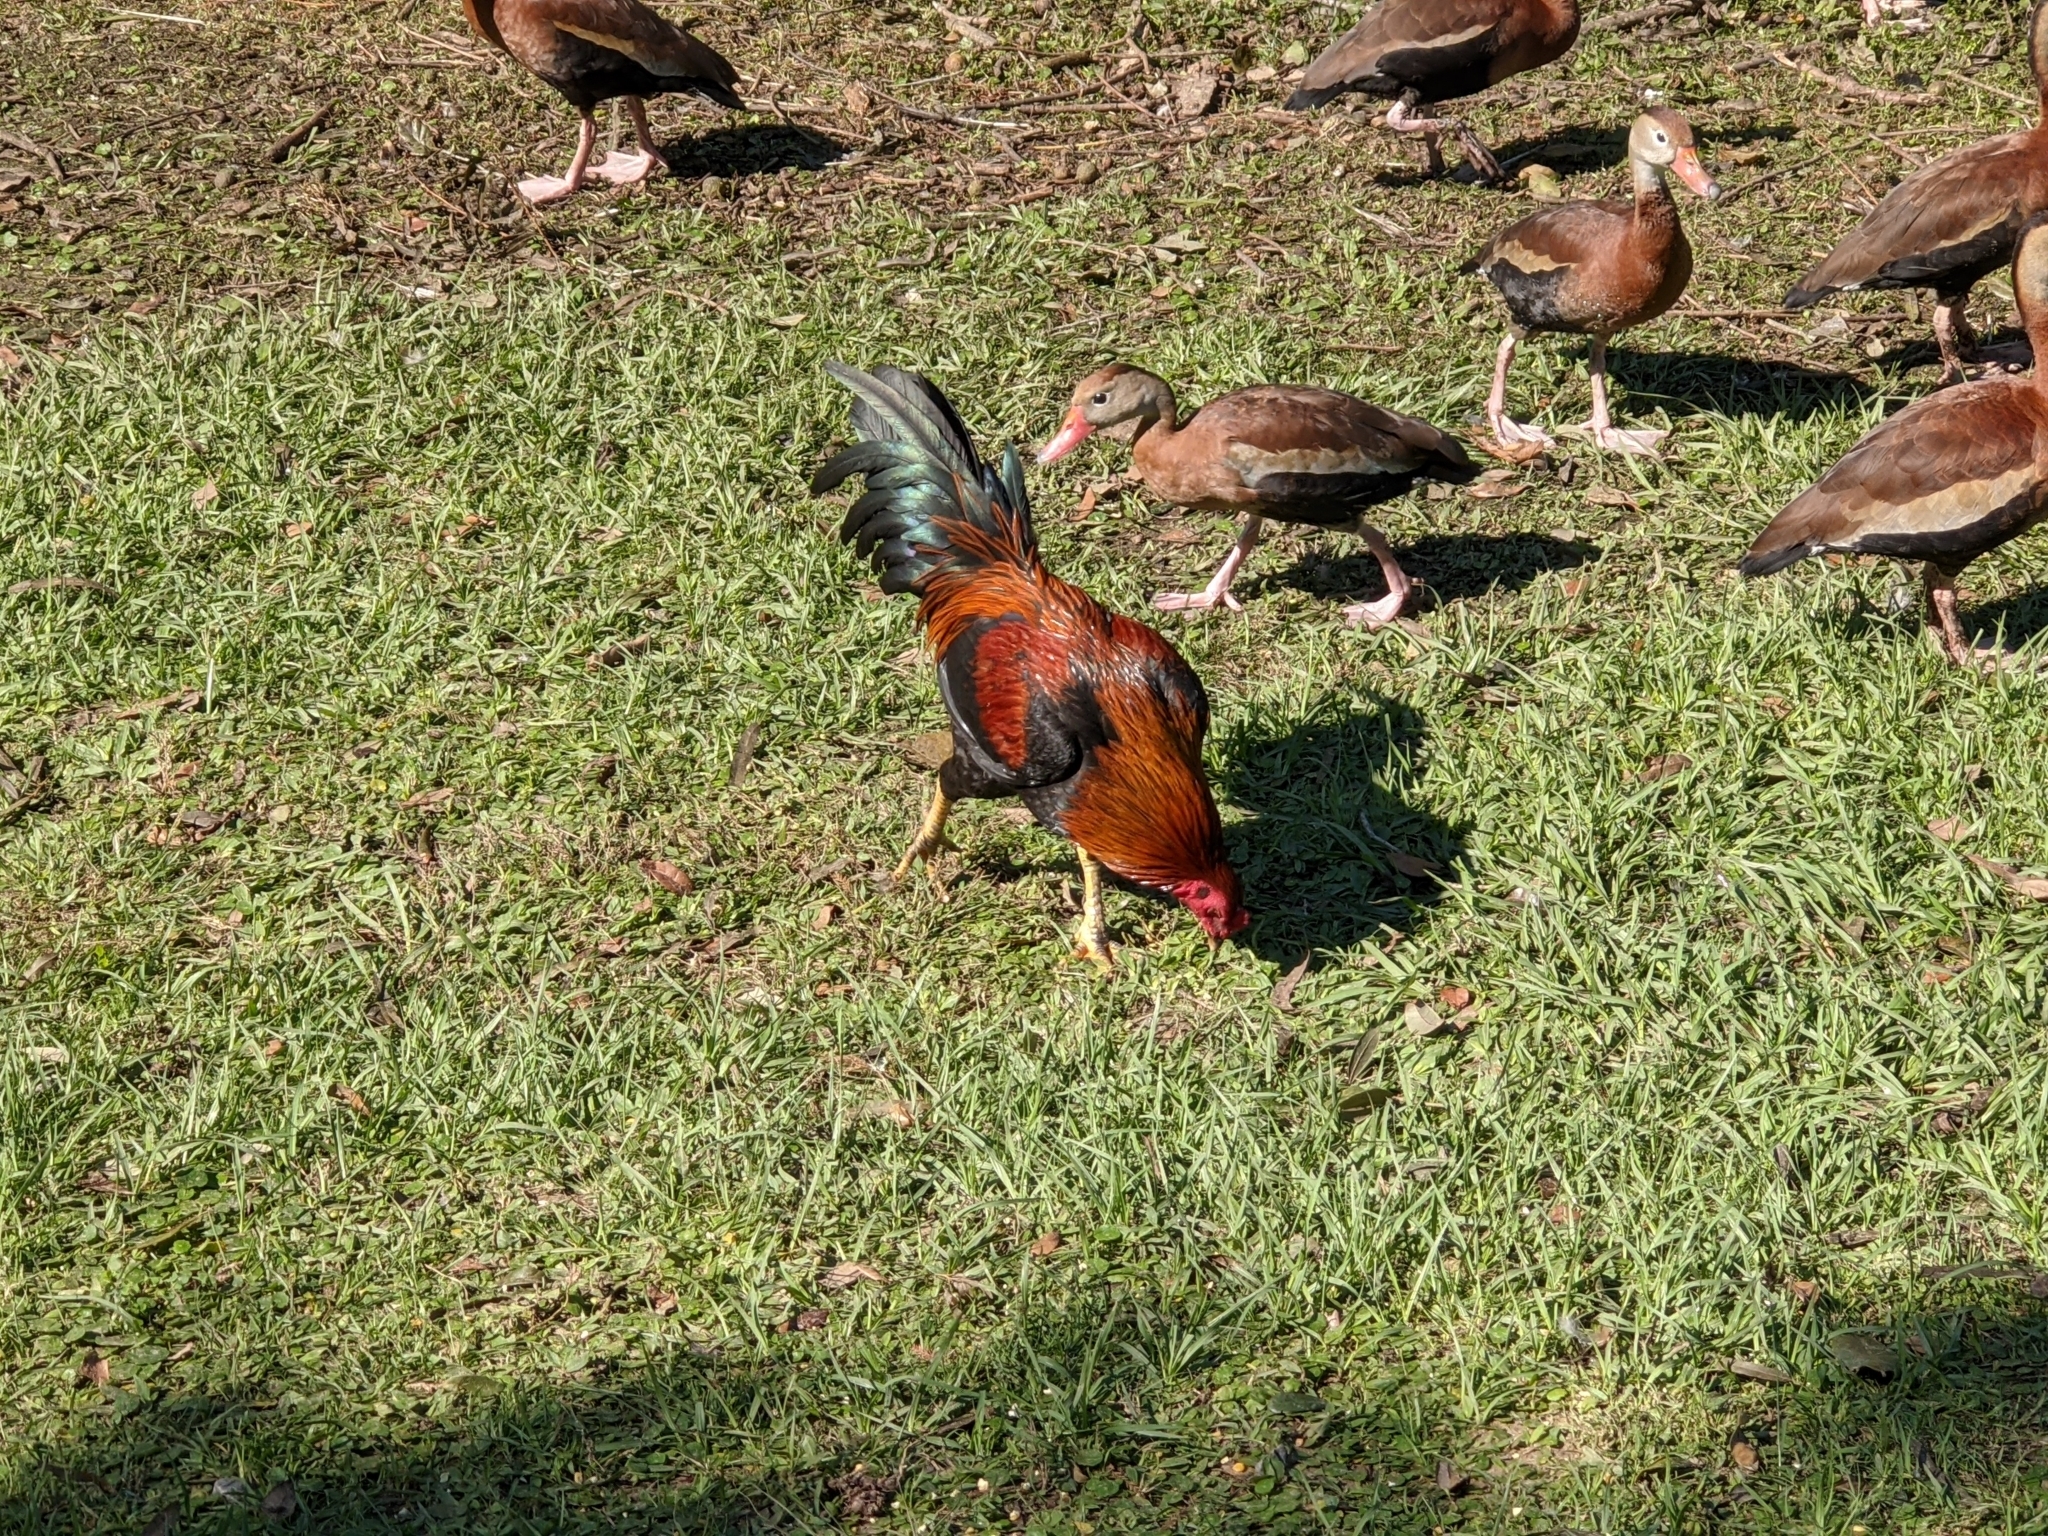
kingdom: Animalia
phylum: Chordata
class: Aves
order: Galliformes
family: Phasianidae
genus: Gallus
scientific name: Gallus gallus
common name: Red junglefowl
